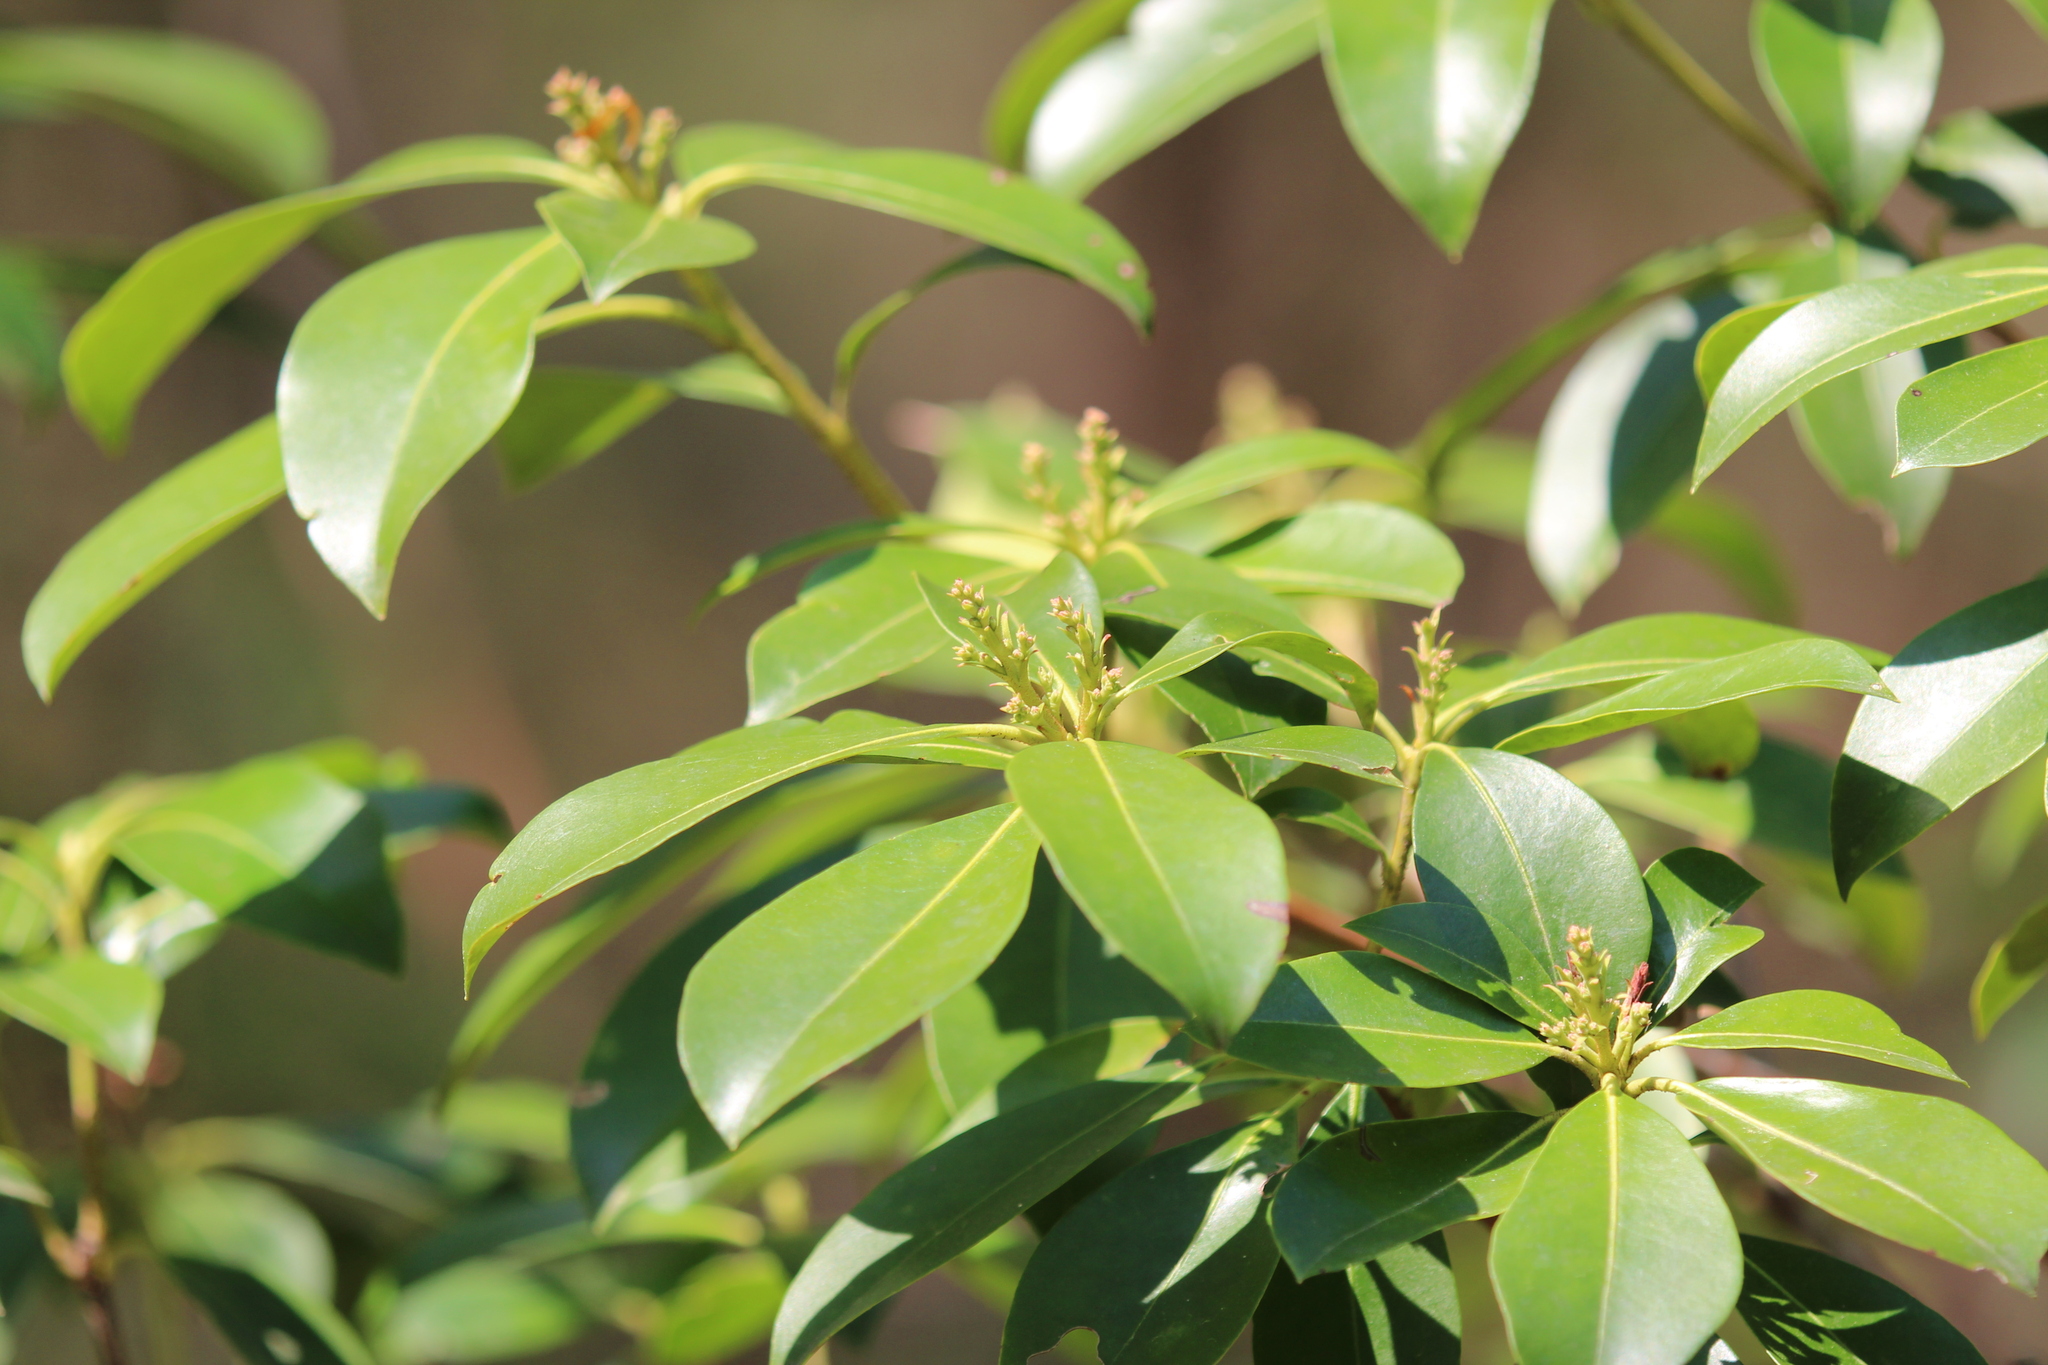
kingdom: Plantae
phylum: Tracheophyta
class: Magnoliopsida
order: Ericales
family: Ericaceae
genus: Kalmia
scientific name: Kalmia latifolia
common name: Mountain-laurel
